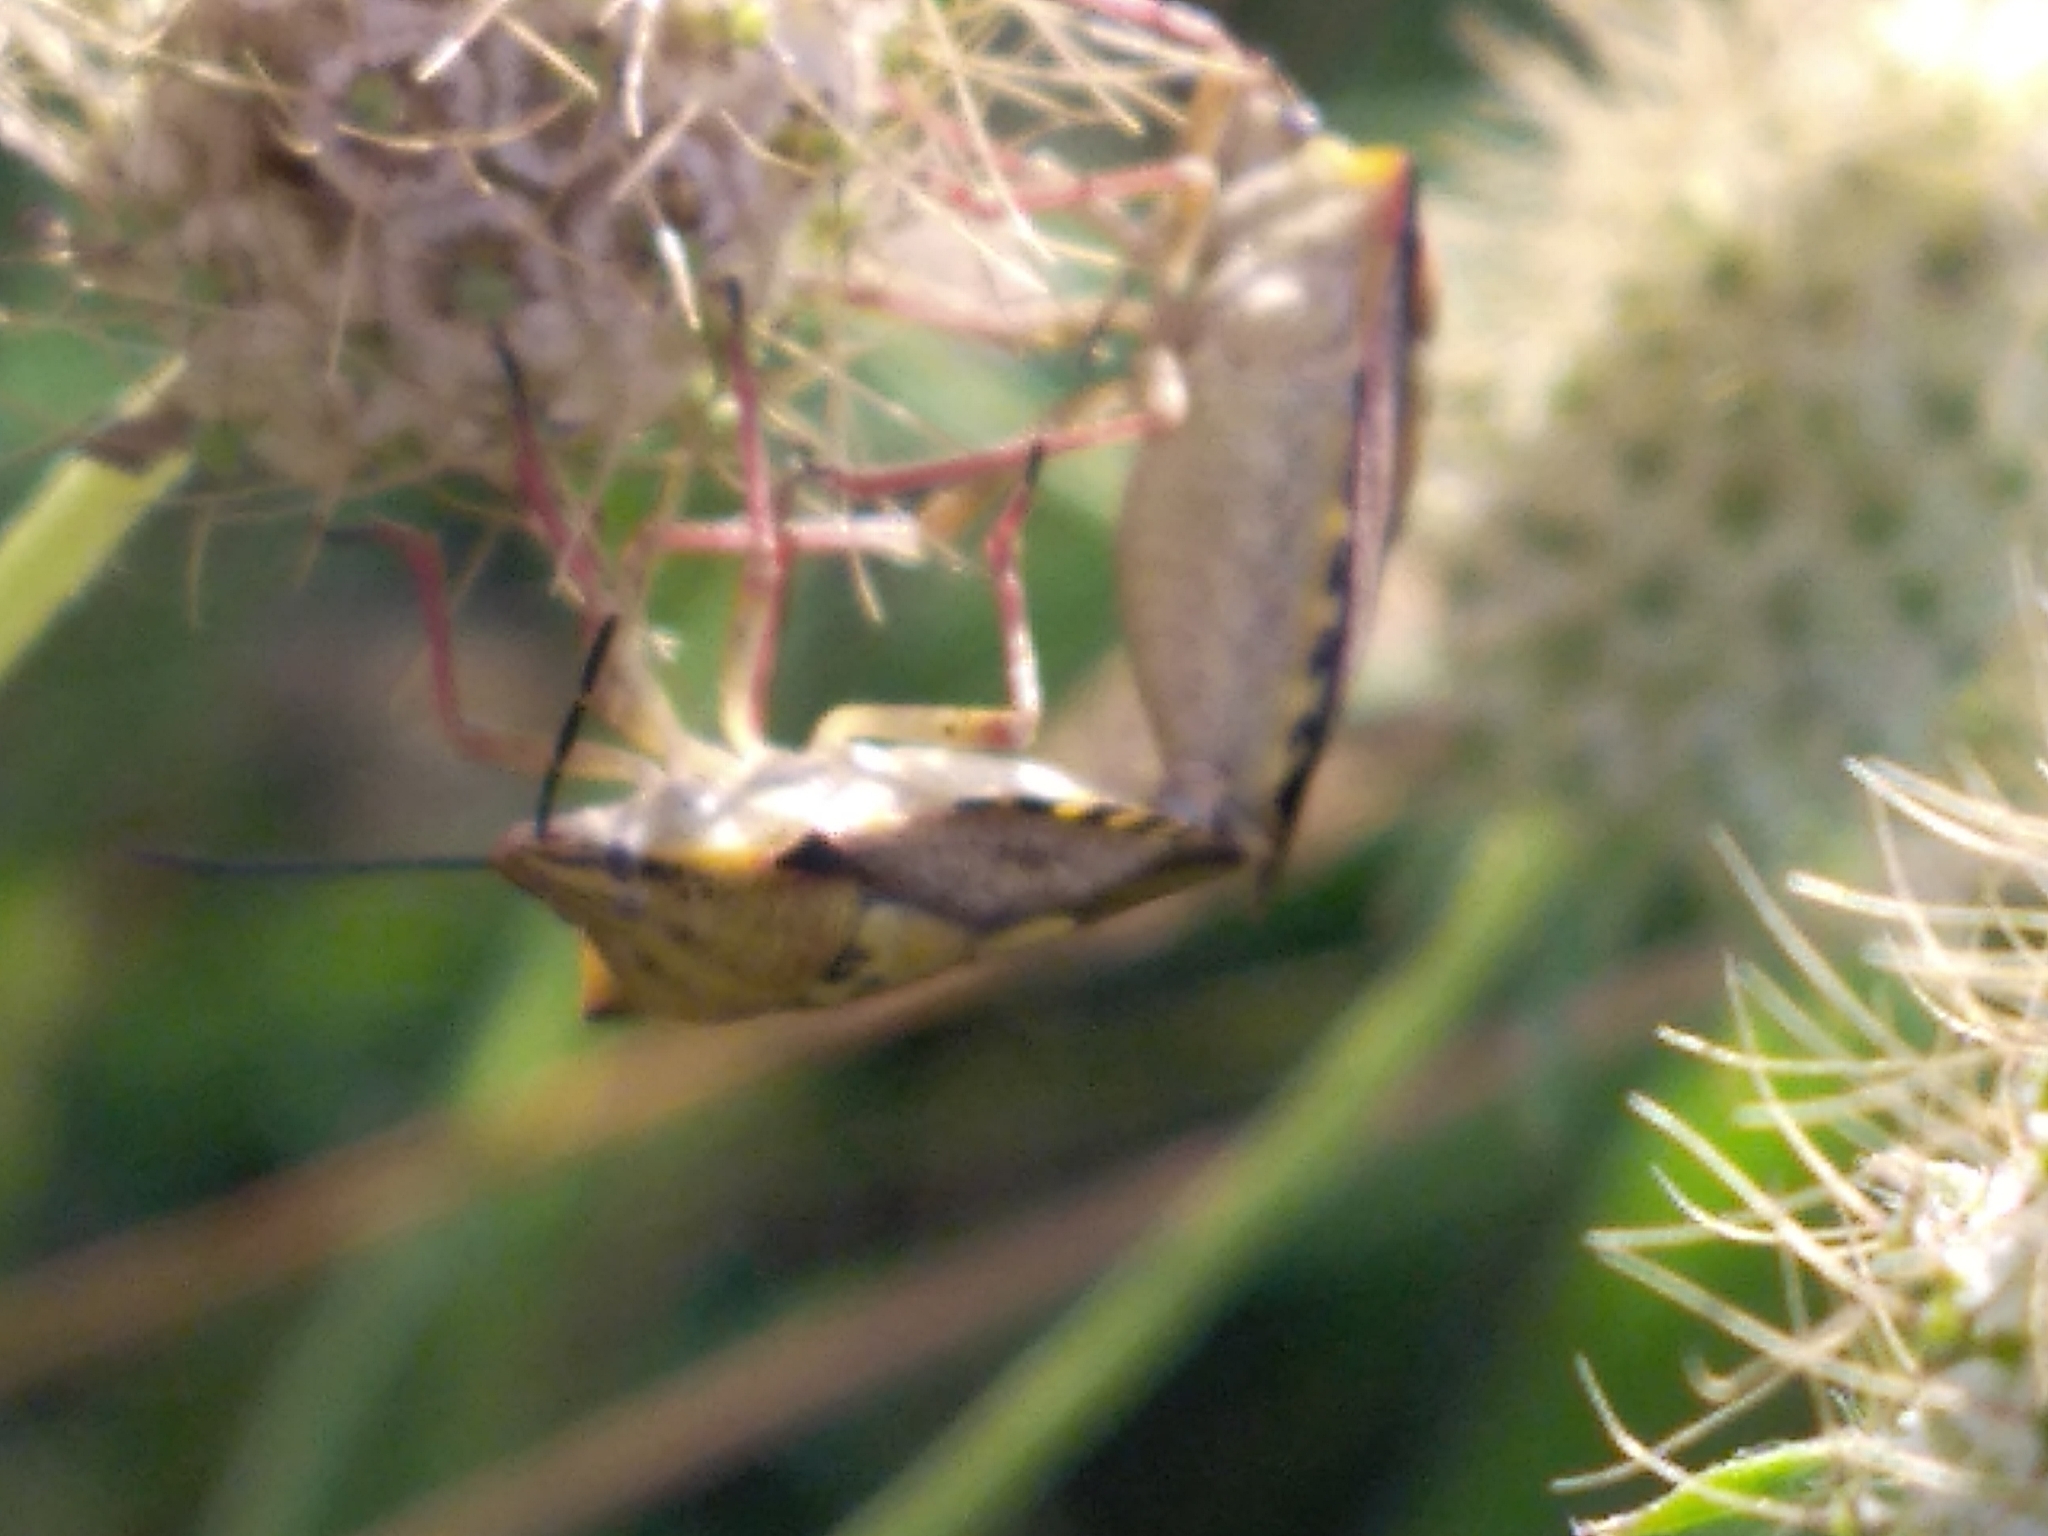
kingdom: Animalia
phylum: Arthropoda
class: Insecta
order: Hemiptera
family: Pentatomidae
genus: Carpocoris
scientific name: Carpocoris mediterraneus
